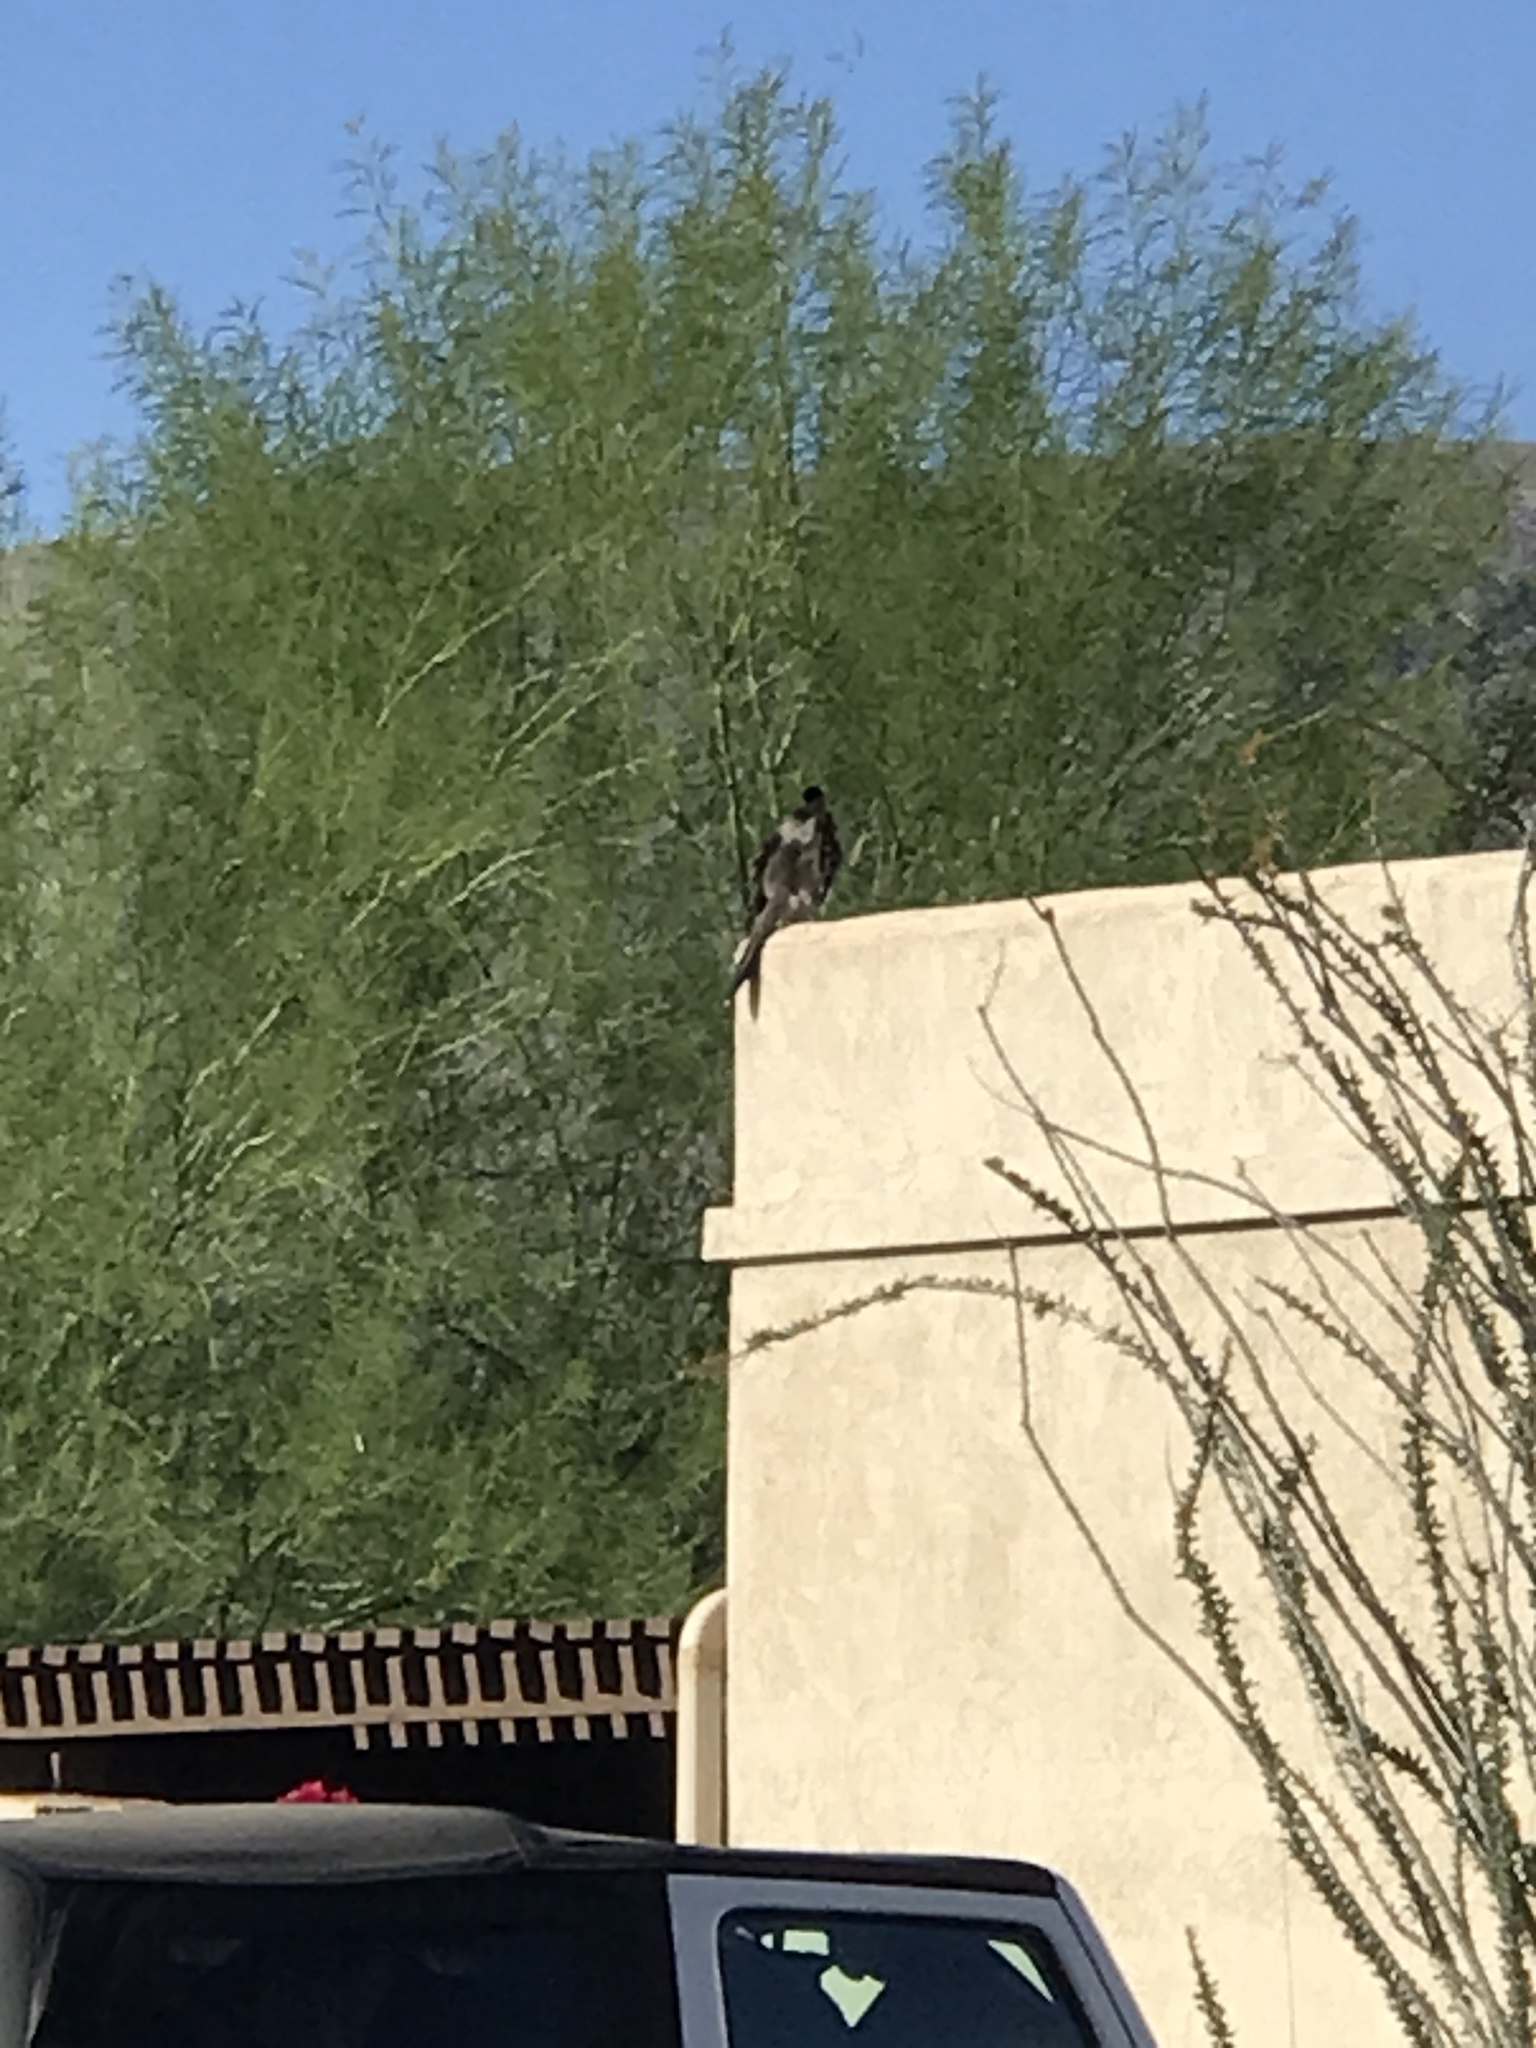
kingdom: Animalia
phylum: Chordata
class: Aves
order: Cuculiformes
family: Cuculidae
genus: Geococcyx
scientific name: Geococcyx californianus
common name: Greater roadrunner
